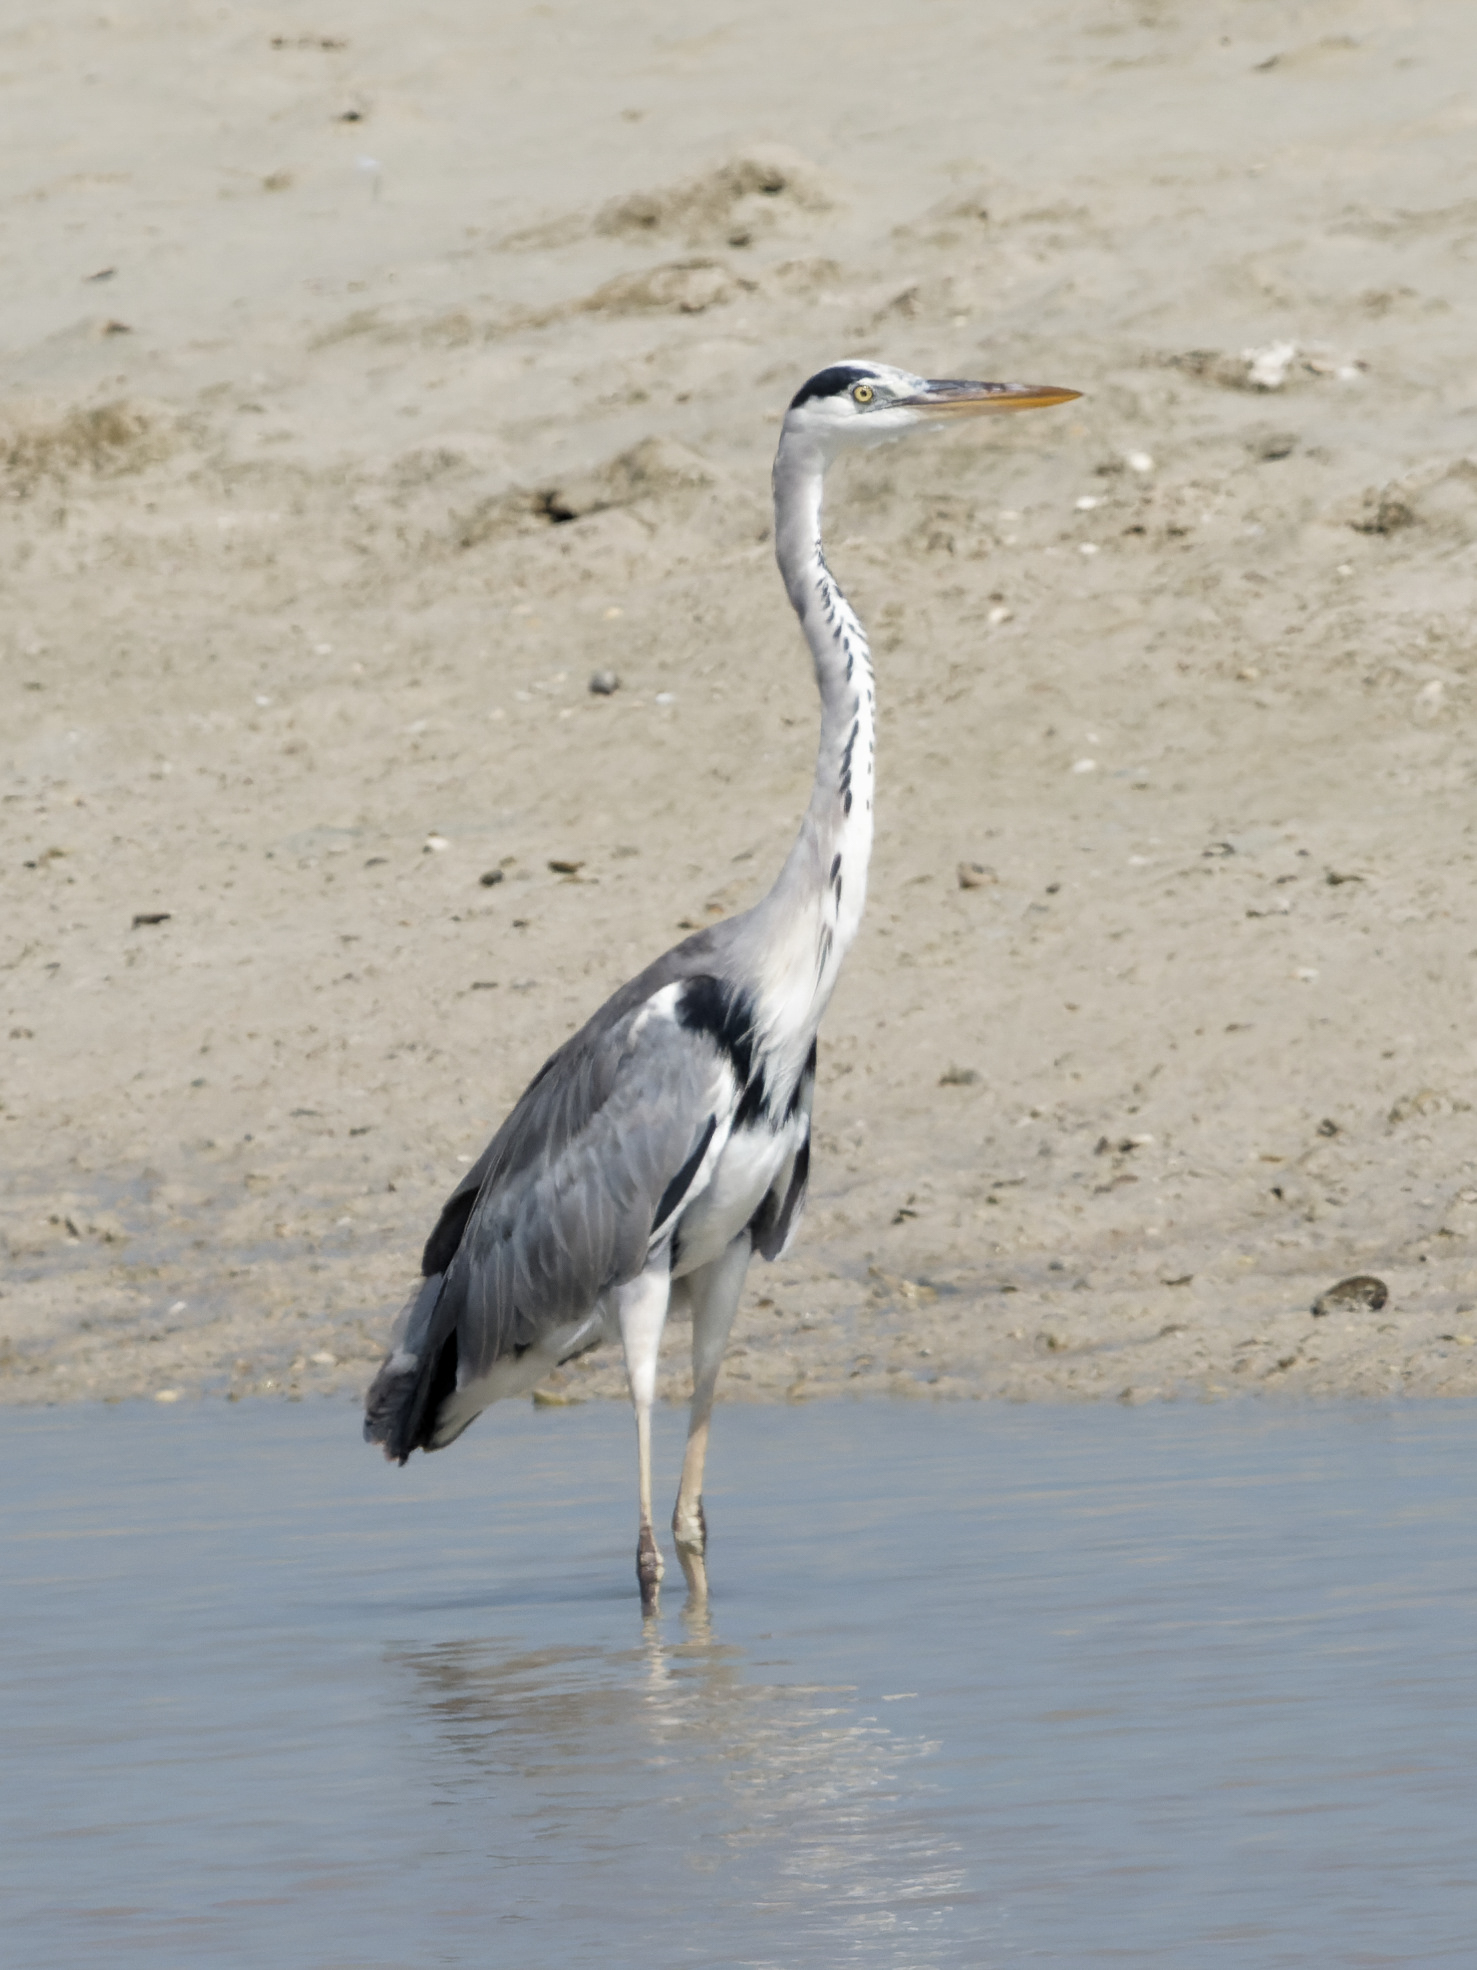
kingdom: Animalia
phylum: Chordata
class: Aves
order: Pelecaniformes
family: Ardeidae
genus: Ardea
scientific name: Ardea cinerea
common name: Grey heron
